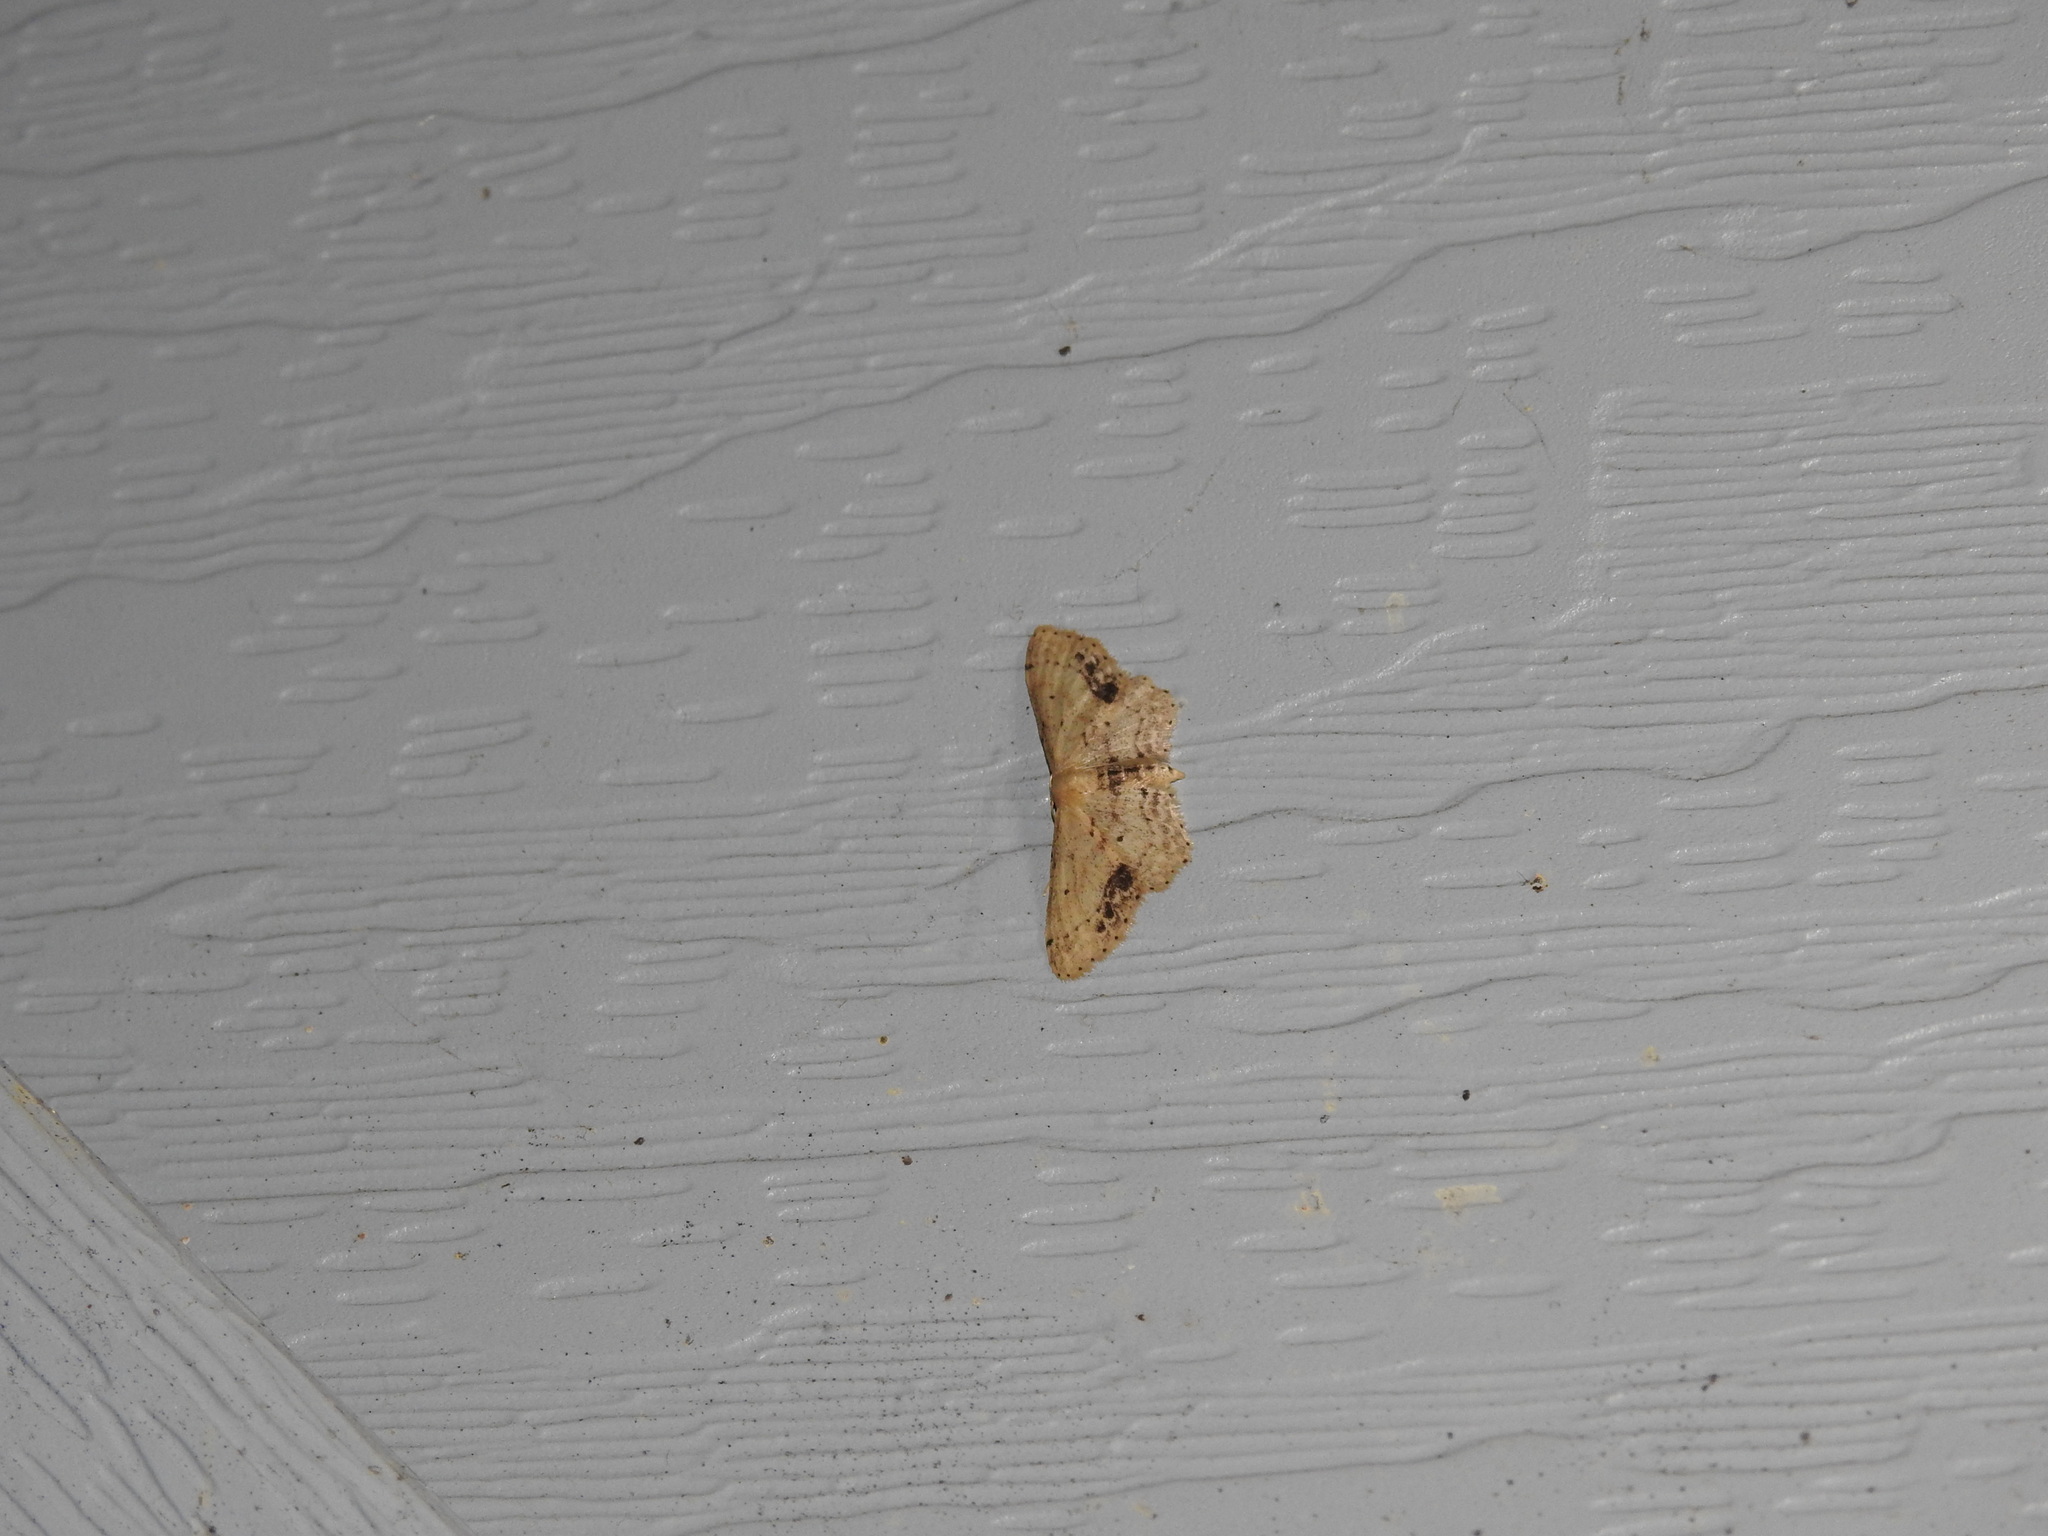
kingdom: Animalia
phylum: Arthropoda
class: Insecta
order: Lepidoptera
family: Geometridae
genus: Idaea
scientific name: Idaea dimidiata
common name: Single-dotted wave
